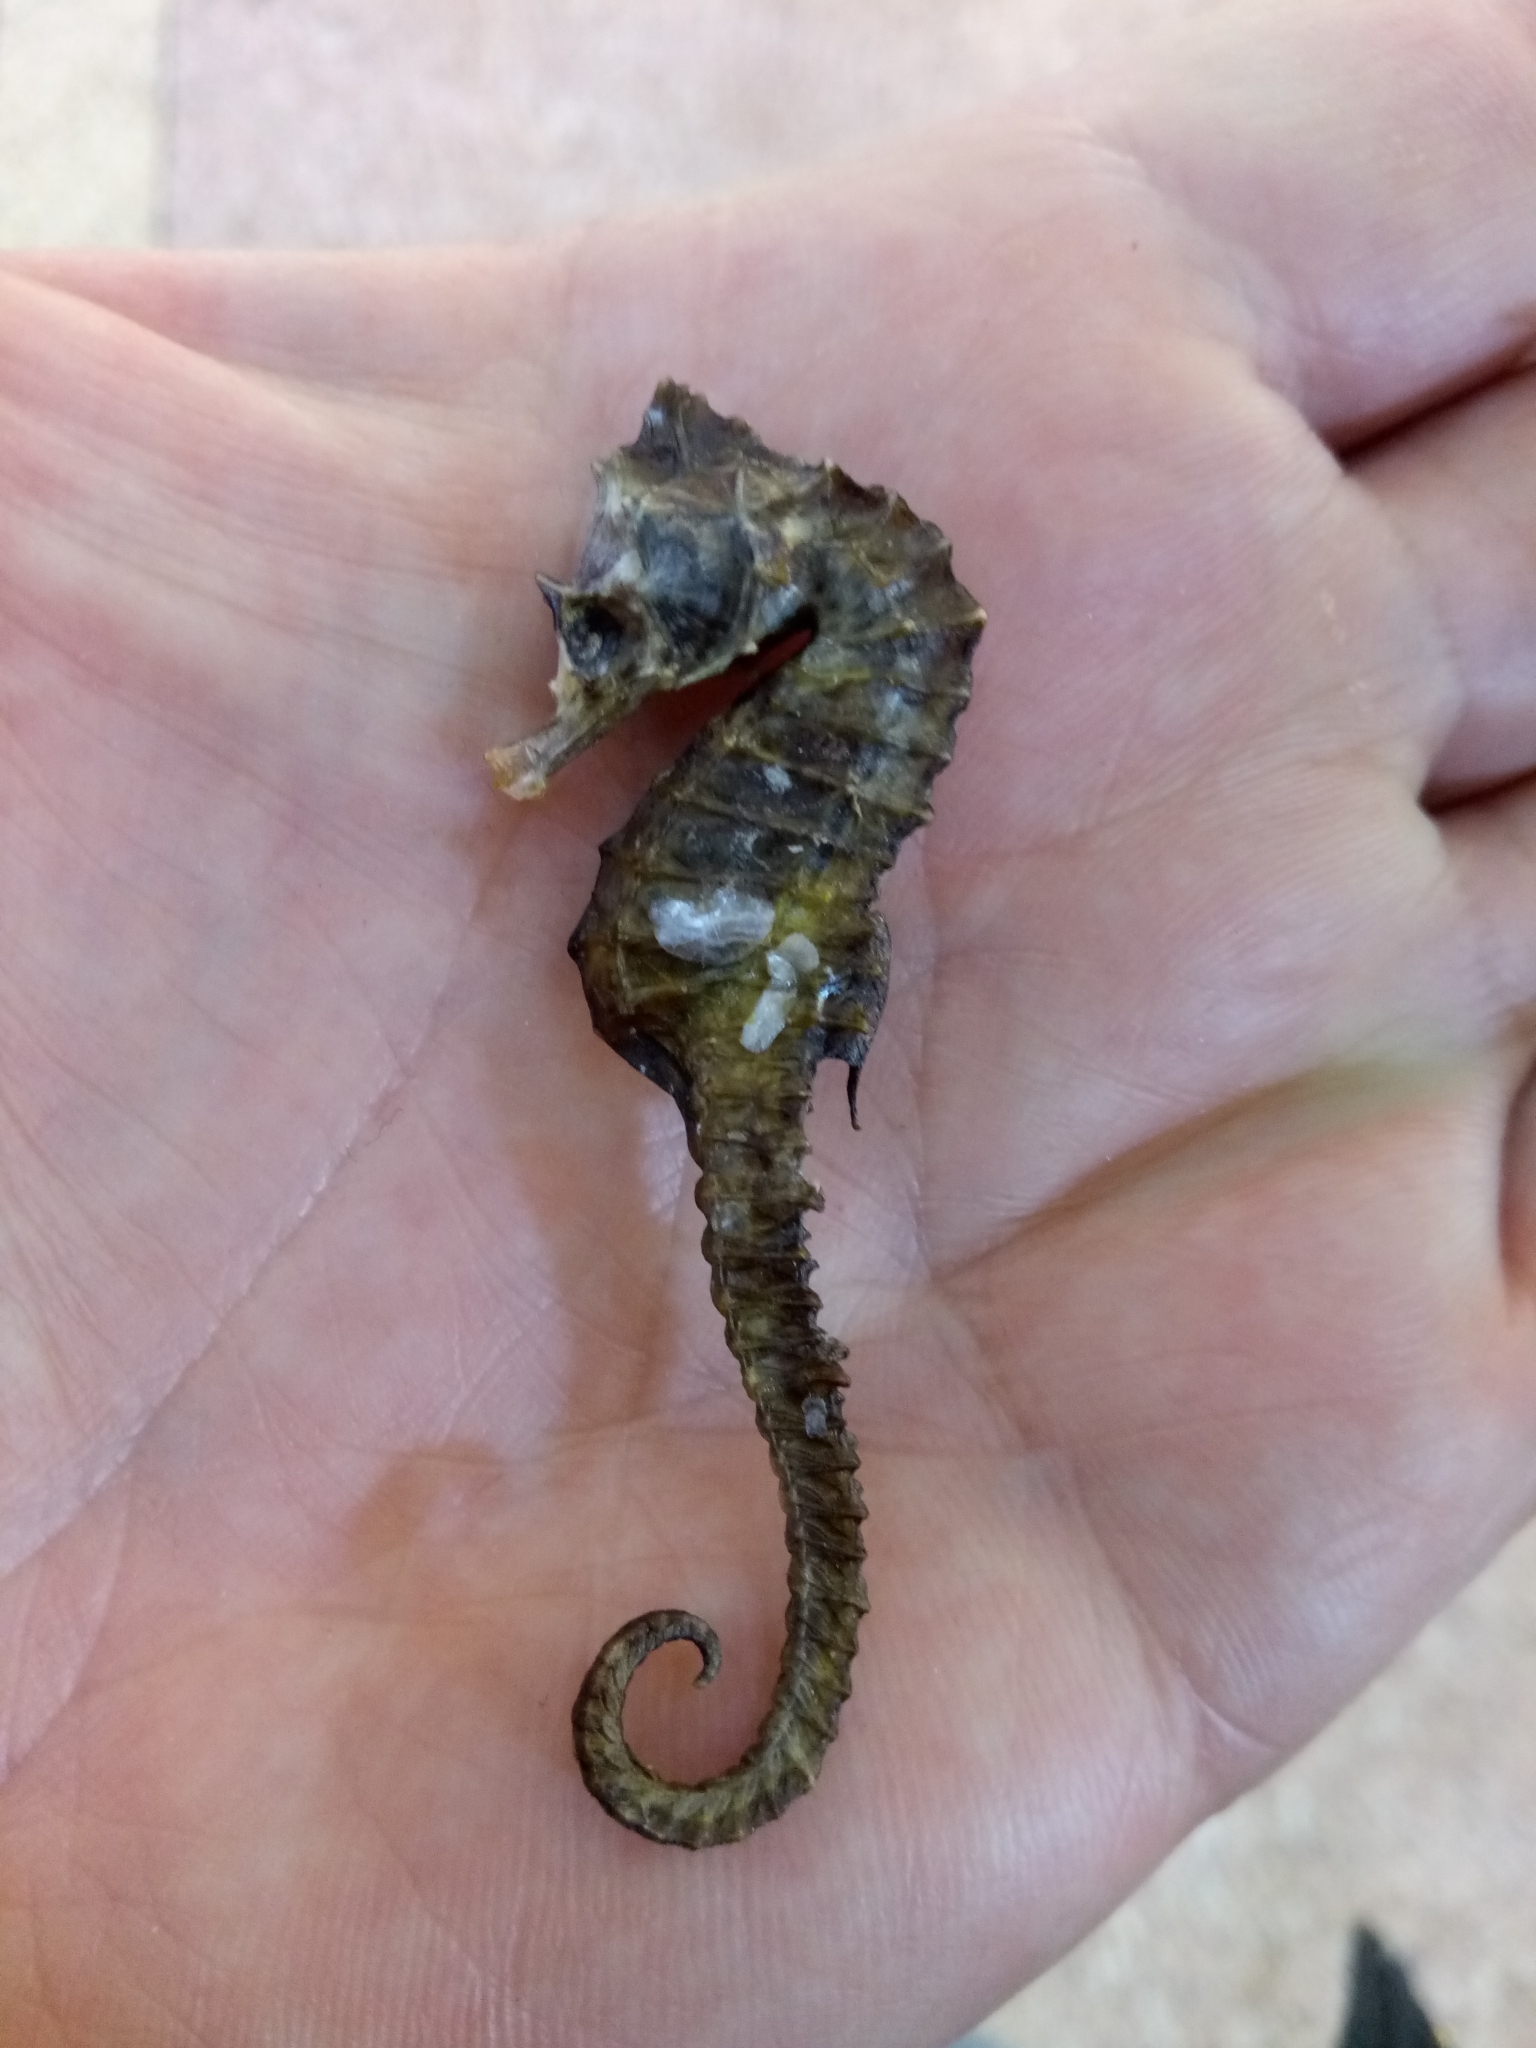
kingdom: Animalia
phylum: Chordata
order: Syngnathiformes
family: Syngnathidae
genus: Hippocampus
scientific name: Hippocampus hippocampus
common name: Short-snouted seahorse
